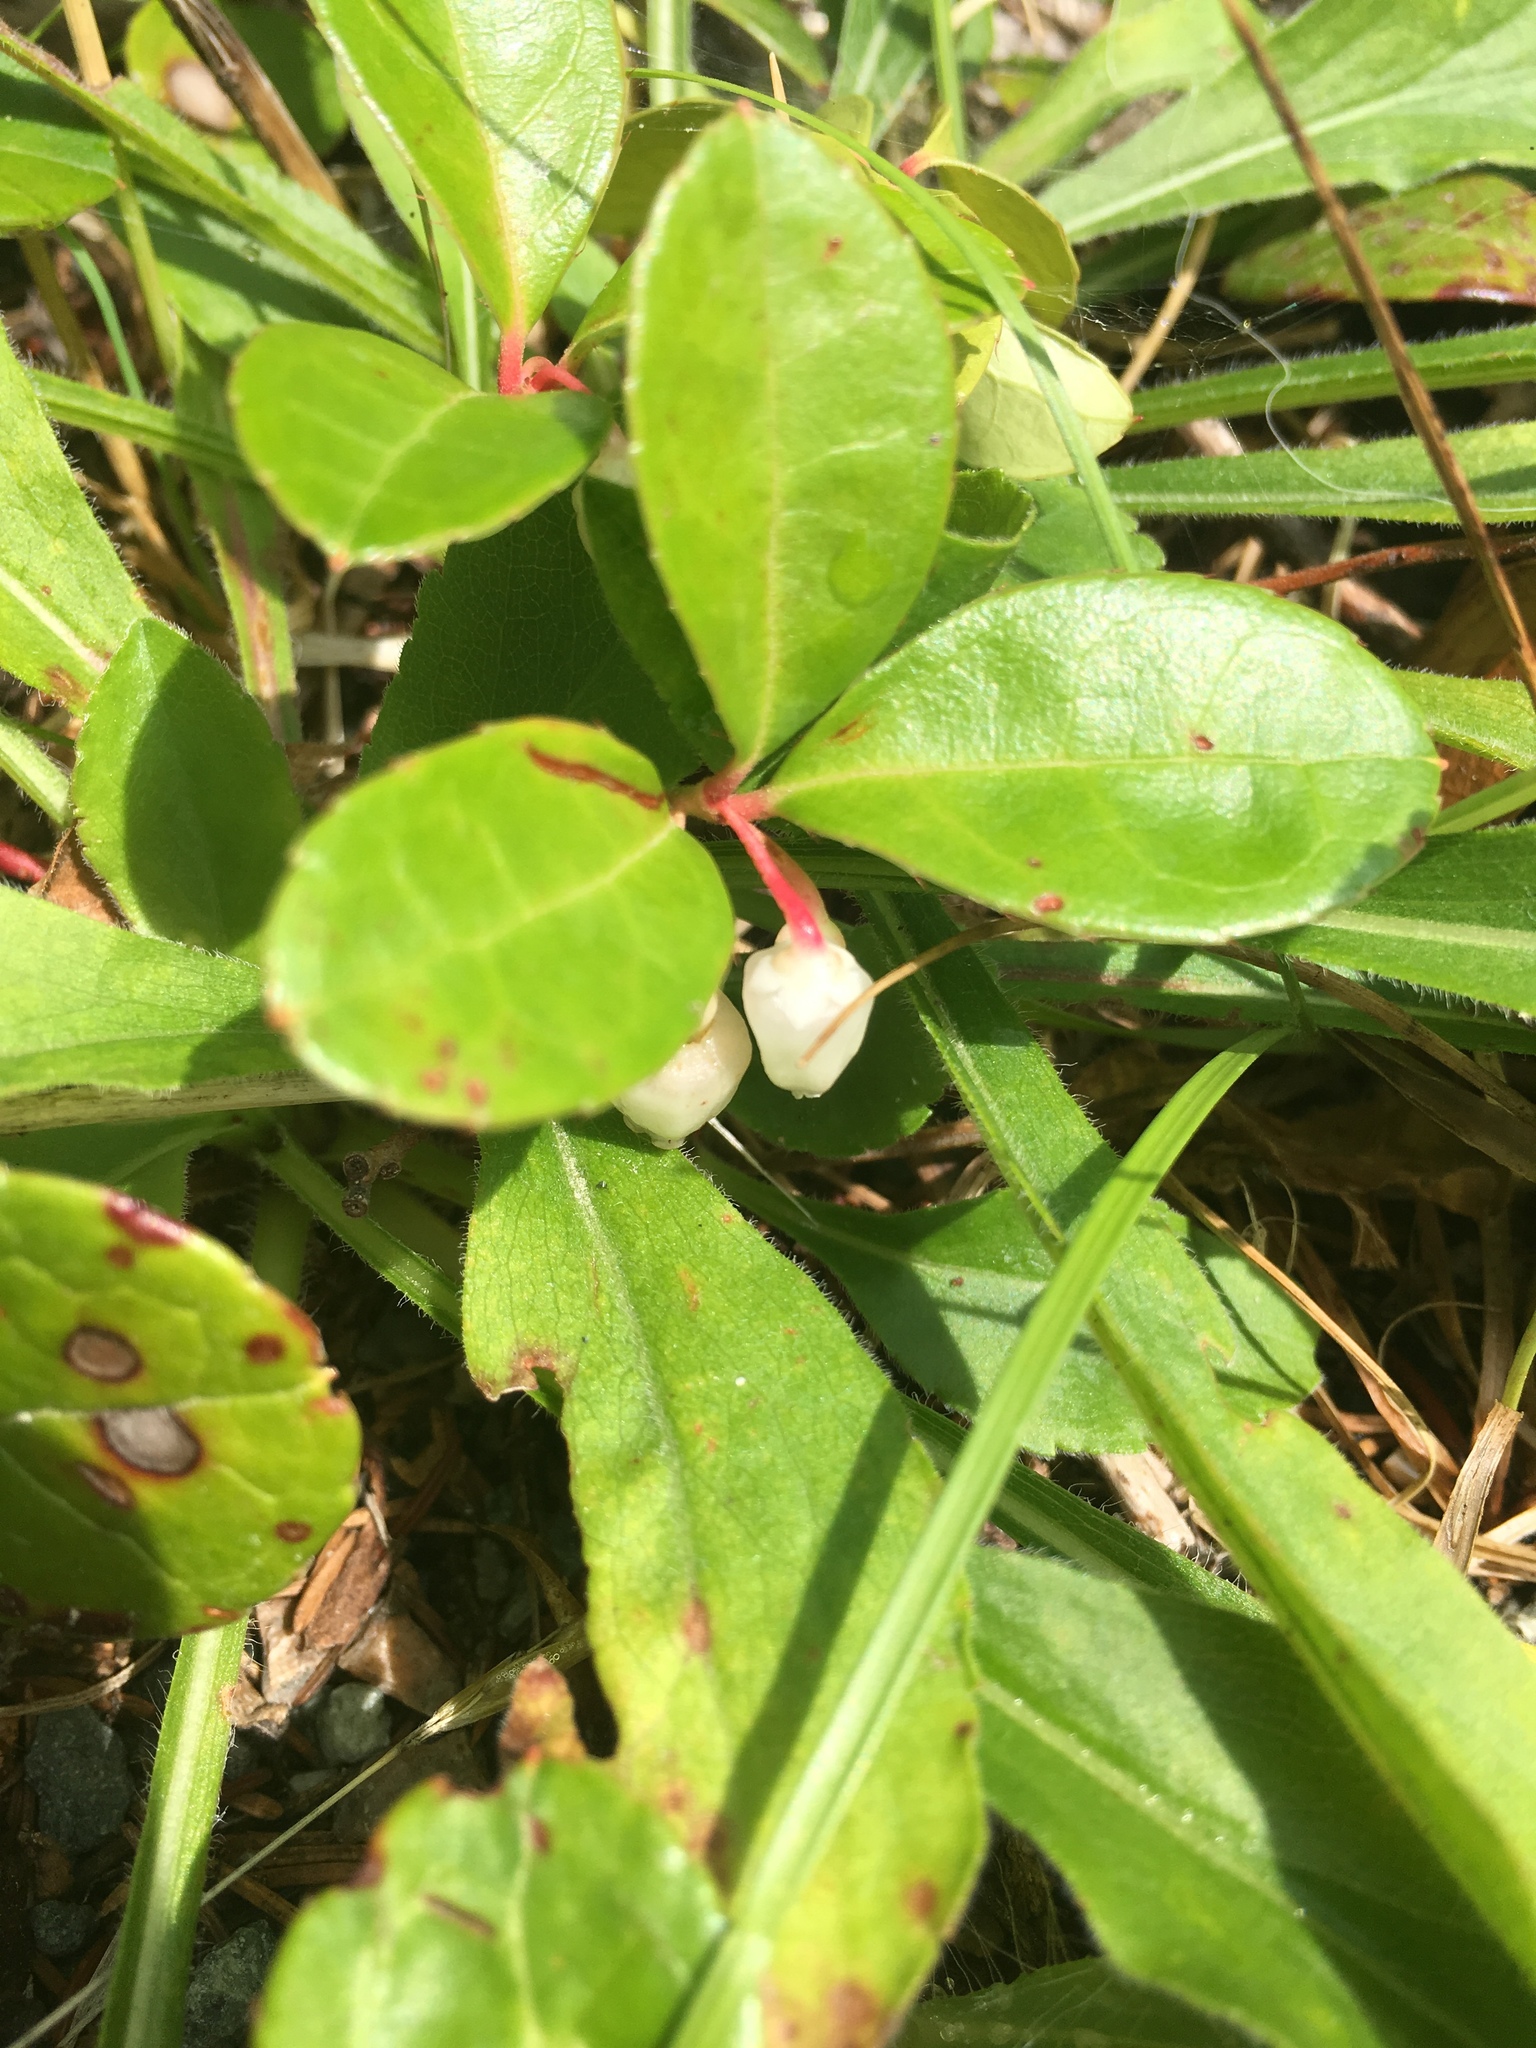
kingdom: Plantae
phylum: Tracheophyta
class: Magnoliopsida
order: Ericales
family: Ericaceae
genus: Gaultheria
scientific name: Gaultheria procumbens
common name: Checkerberry
